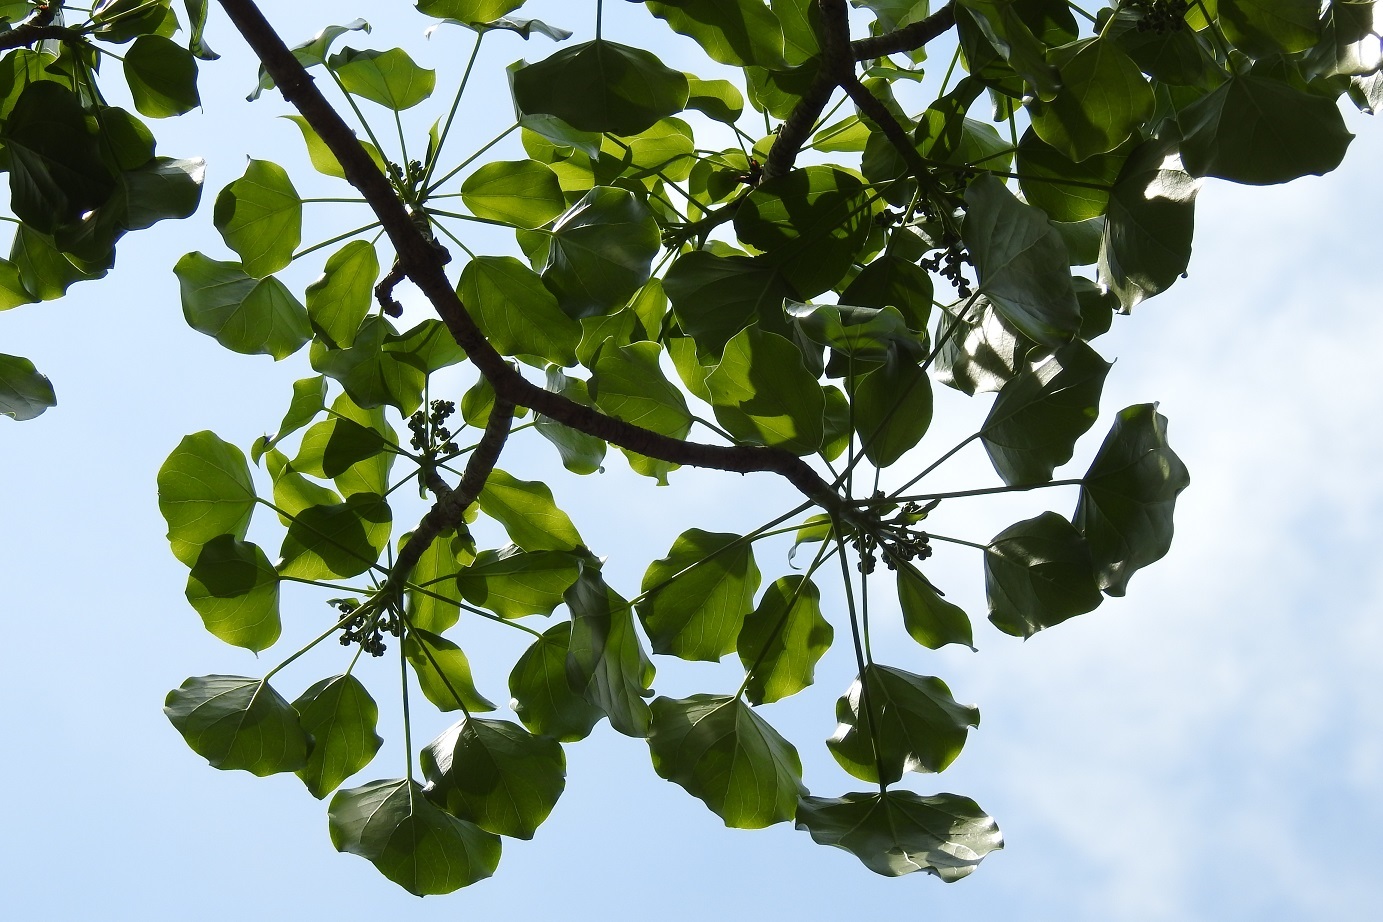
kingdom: Plantae
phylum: Tracheophyta
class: Magnoliopsida
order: Apiales
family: Araliaceae
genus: Oreopanax
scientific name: Oreopanax platyphyllus
